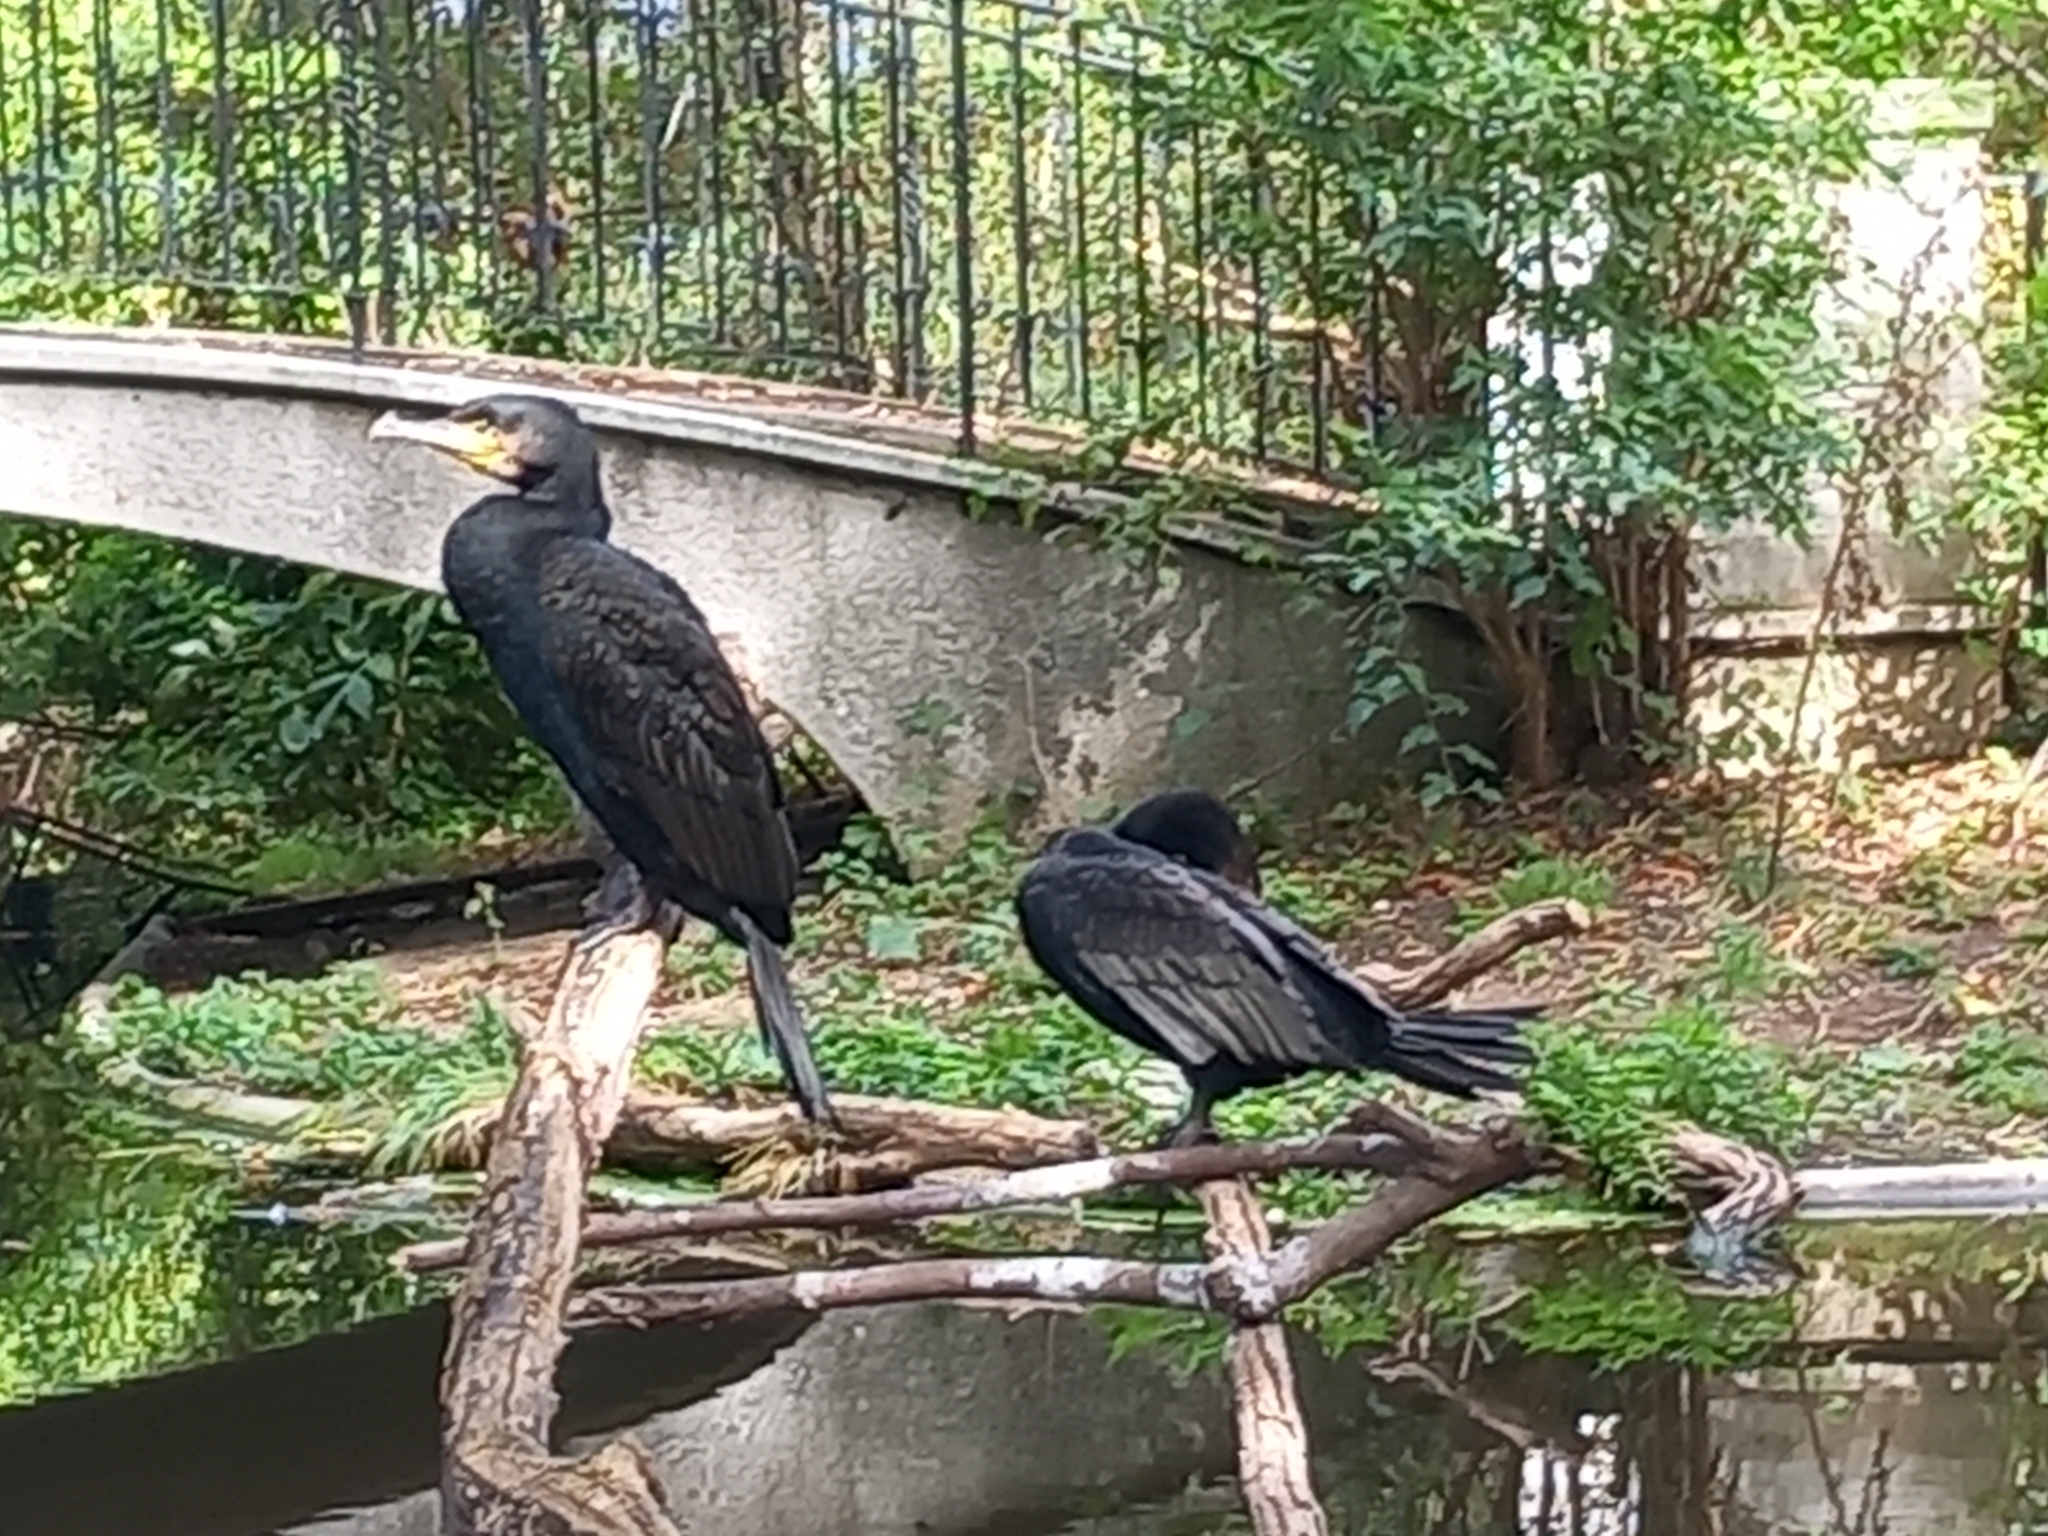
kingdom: Animalia
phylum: Chordata
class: Aves
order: Suliformes
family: Phalacrocoracidae
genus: Phalacrocorax
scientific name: Phalacrocorax carbo
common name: Great cormorant
